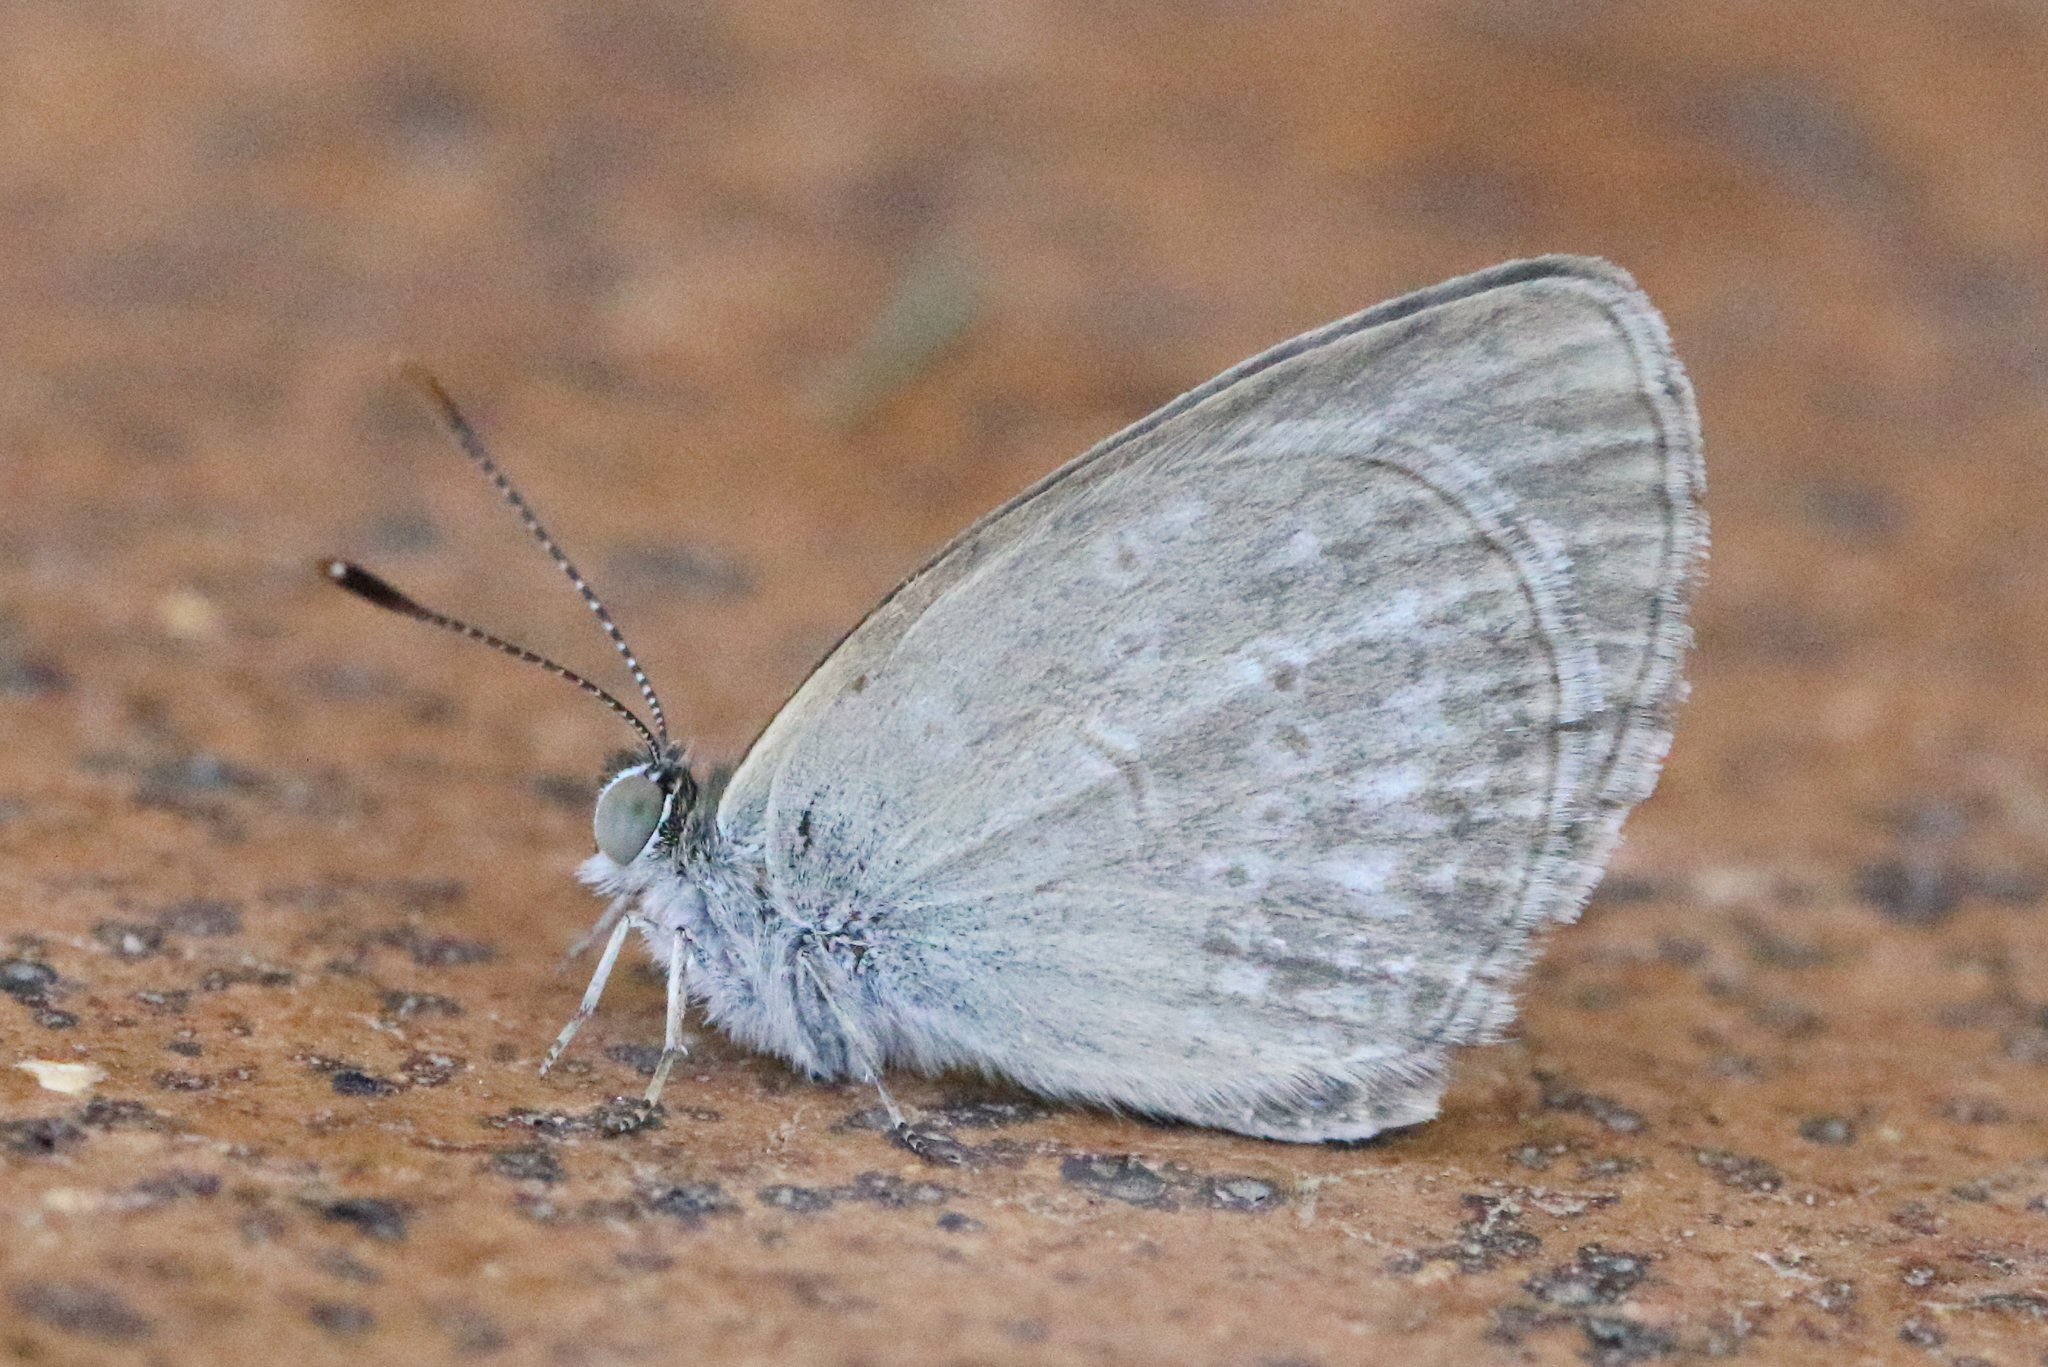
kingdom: Animalia
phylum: Arthropoda
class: Insecta
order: Lepidoptera
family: Lycaenidae
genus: Zizina
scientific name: Zizina labradus
